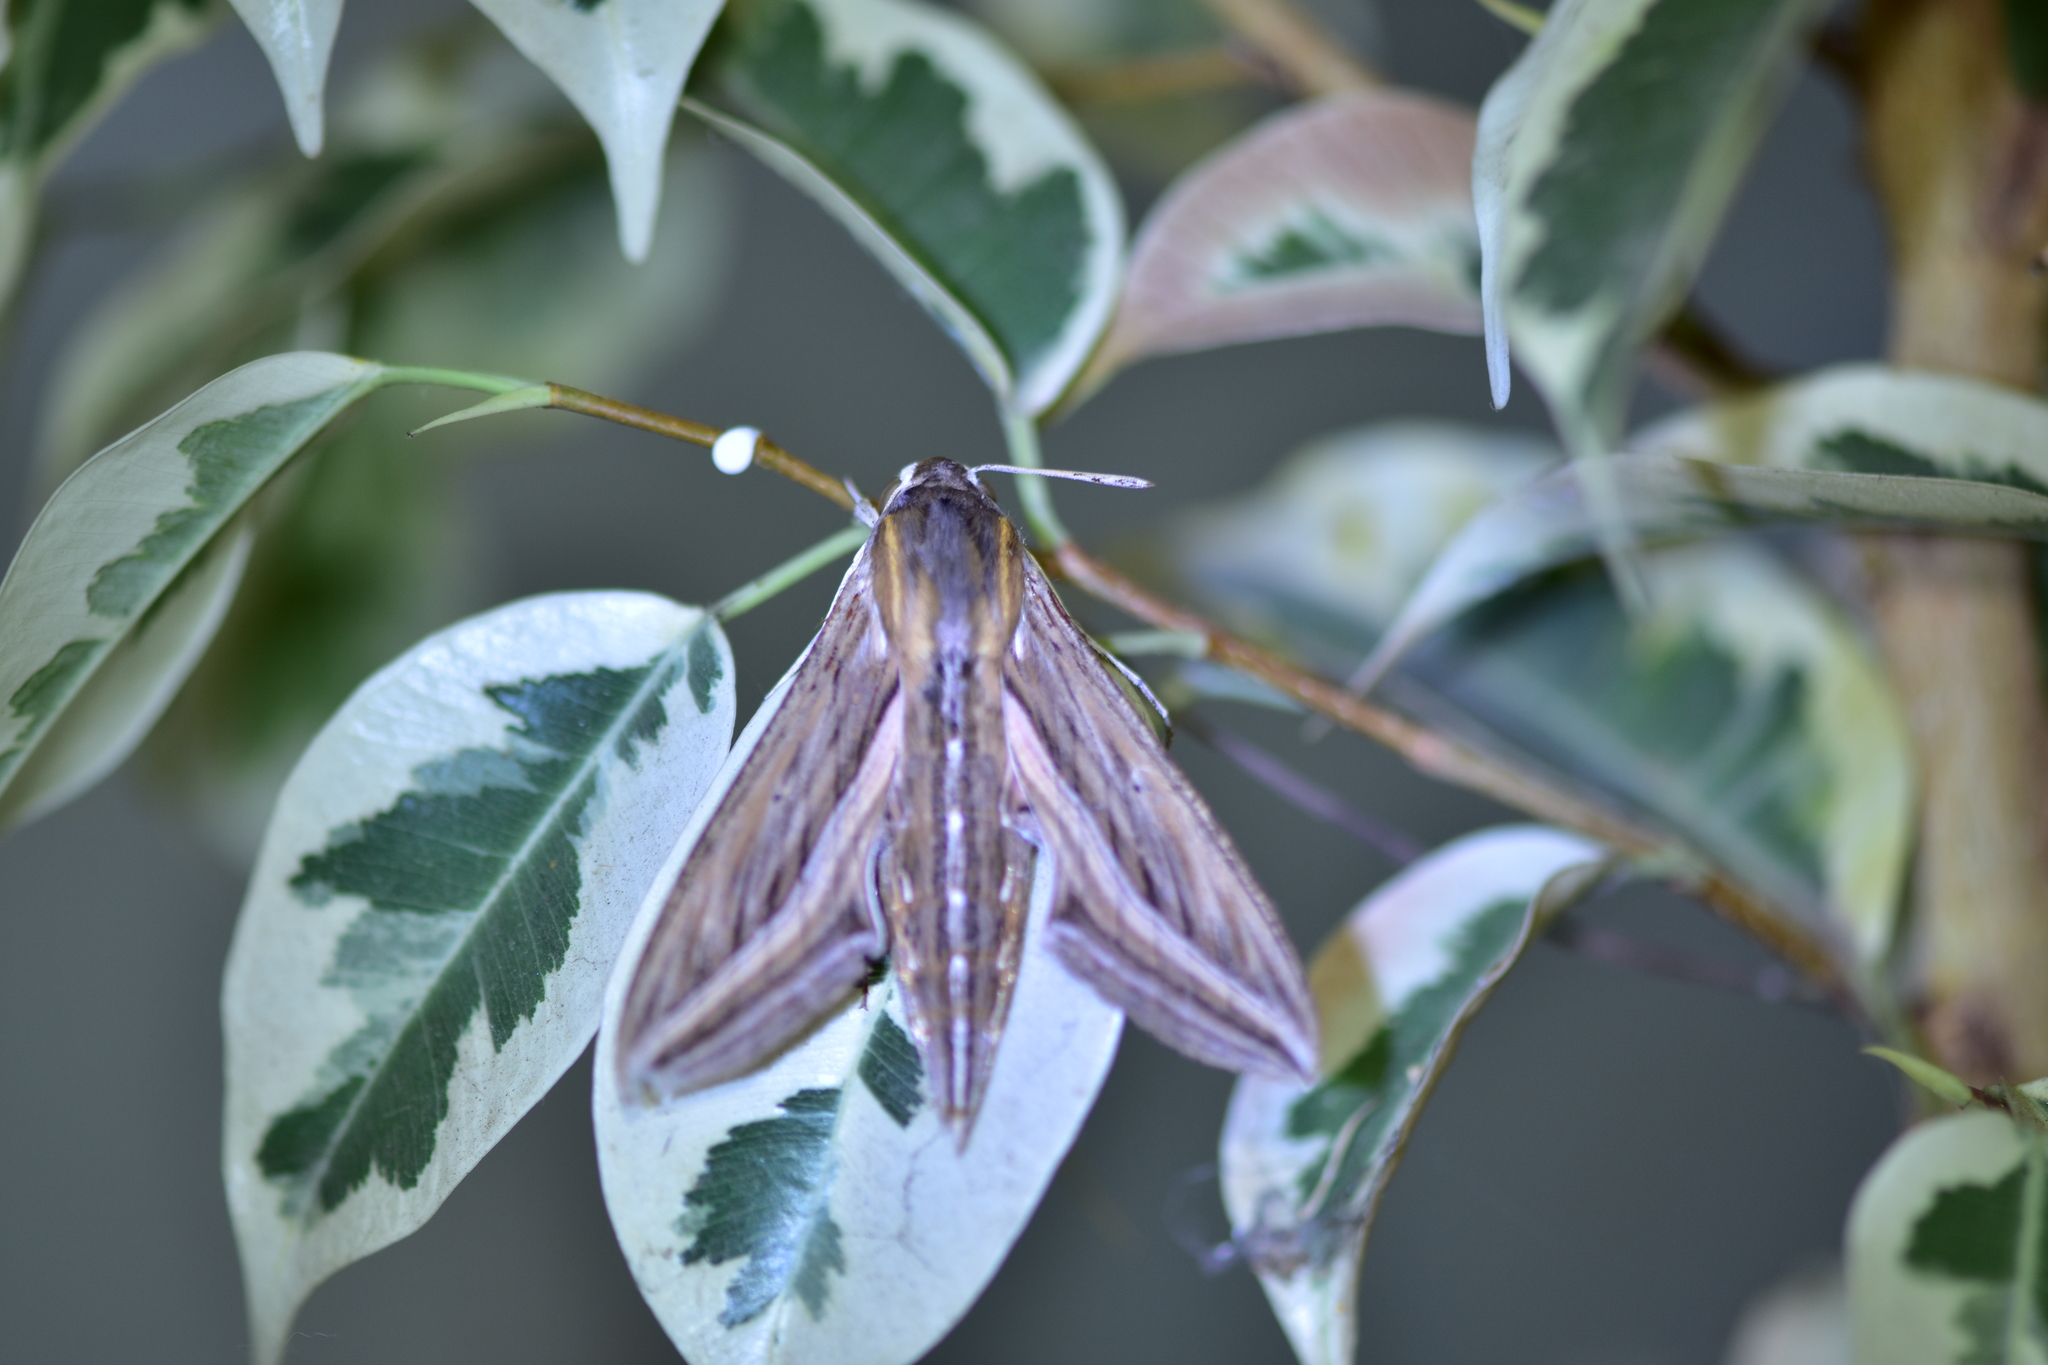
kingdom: Animalia
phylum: Arthropoda
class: Insecta
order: Lepidoptera
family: Sphingidae
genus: Hippotion
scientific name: Hippotion celerio
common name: Silver-striped hawk-moth
